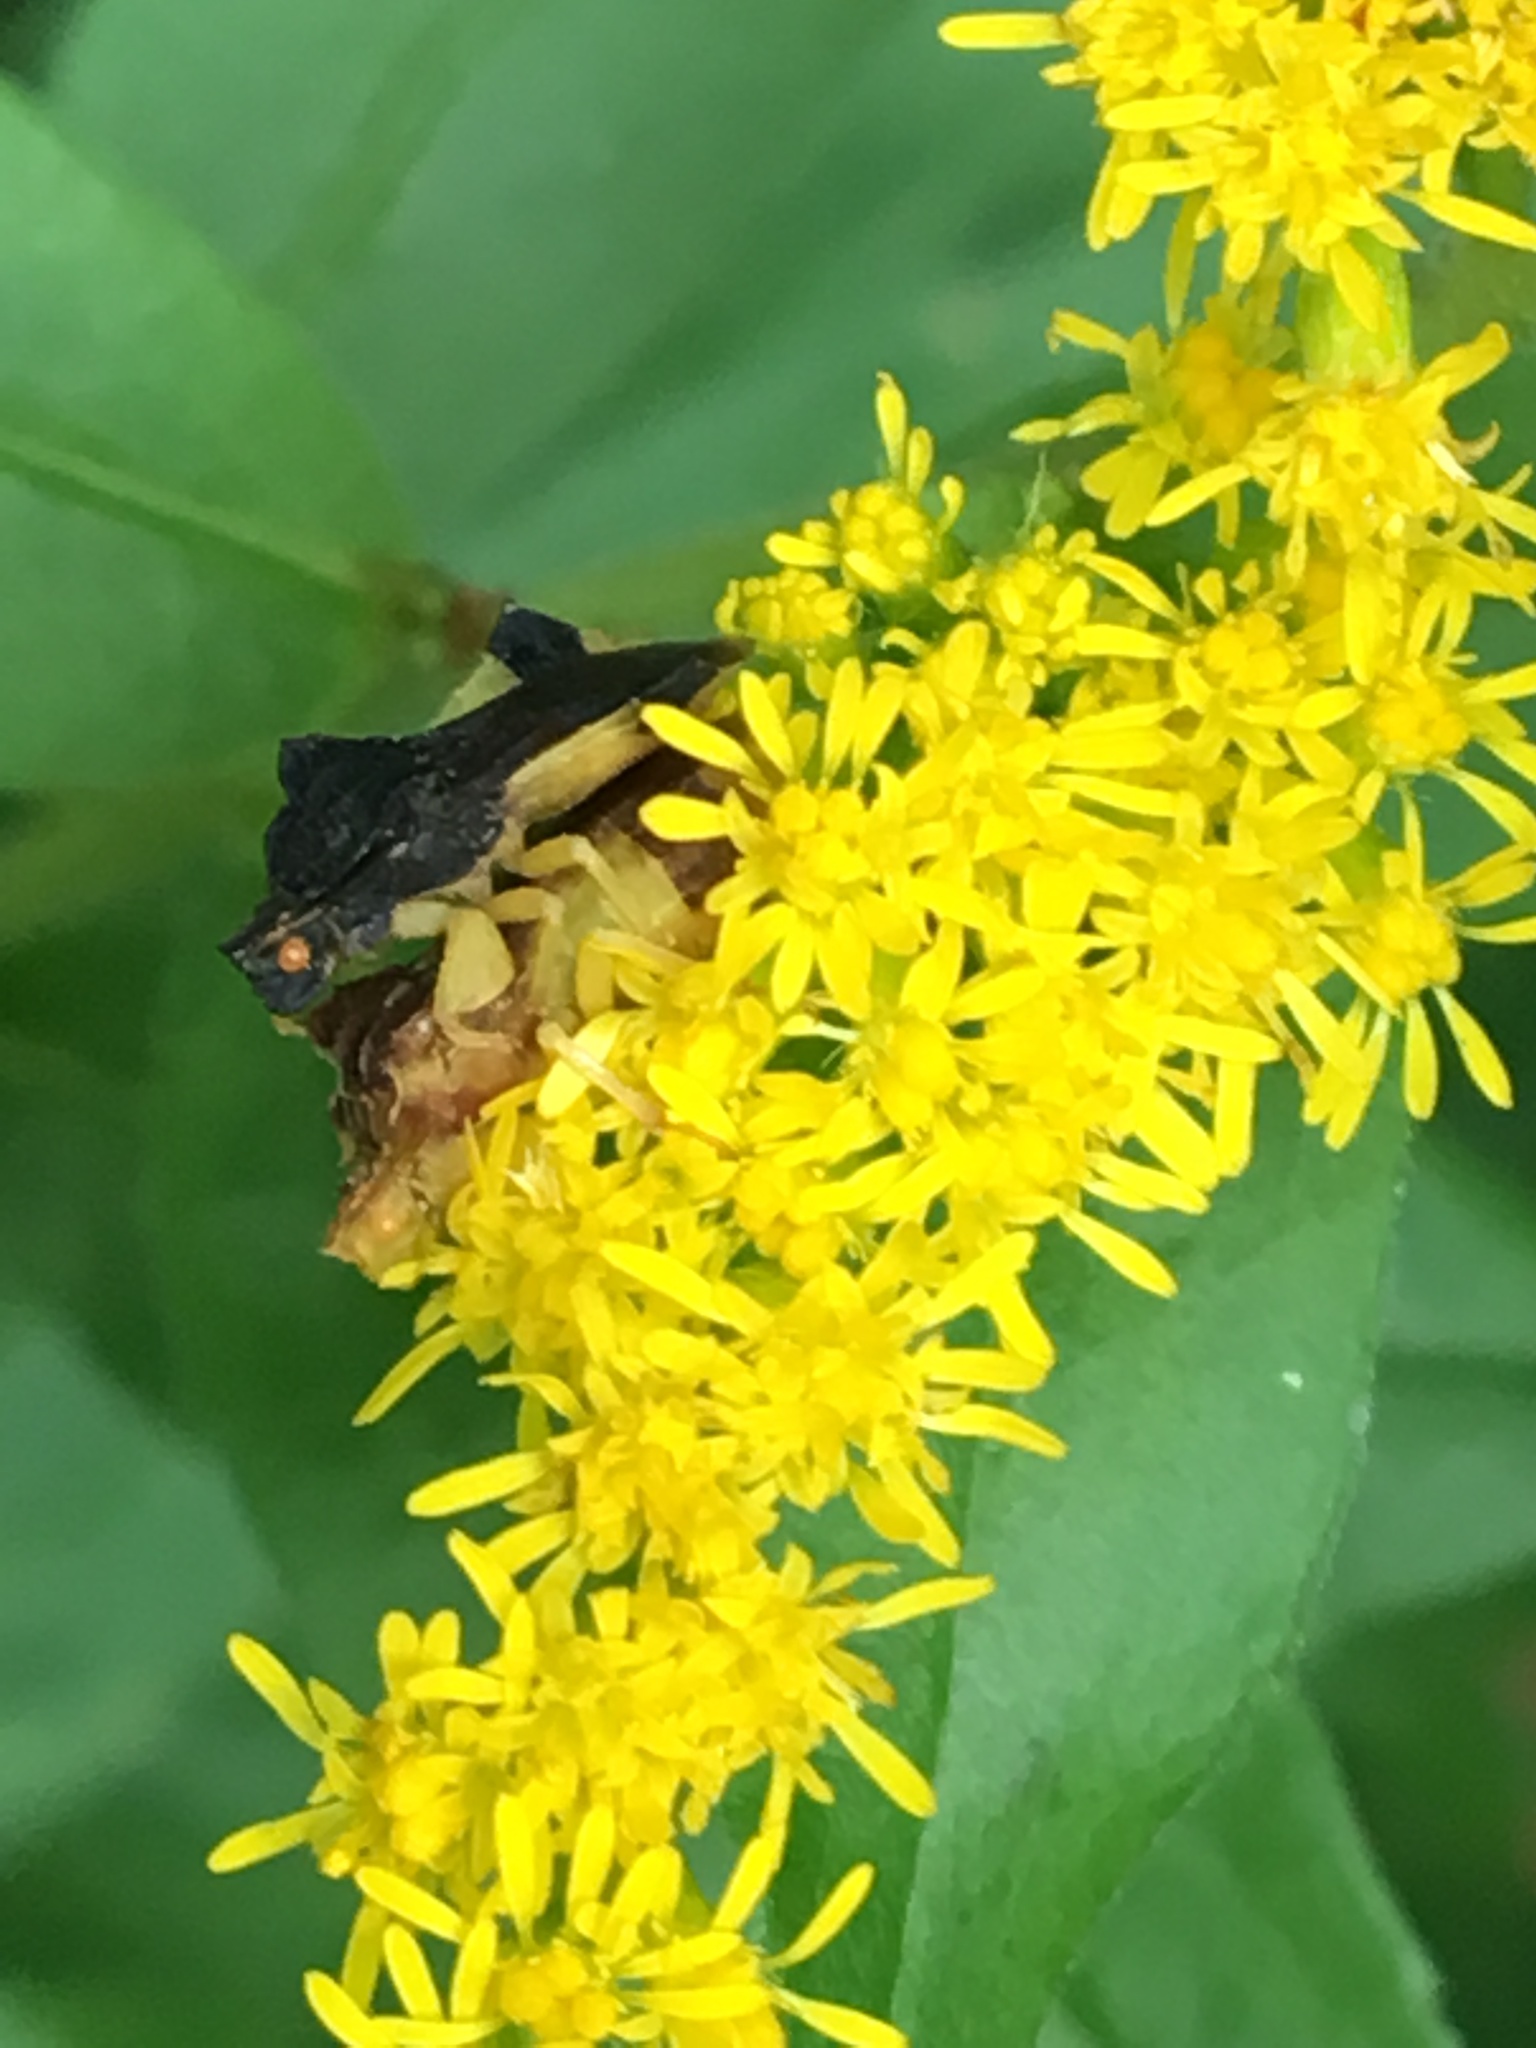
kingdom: Animalia
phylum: Arthropoda
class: Insecta
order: Hemiptera
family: Reduviidae
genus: Phymata
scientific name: Phymata pennsylvanica
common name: Pennsylvania ambush bug
